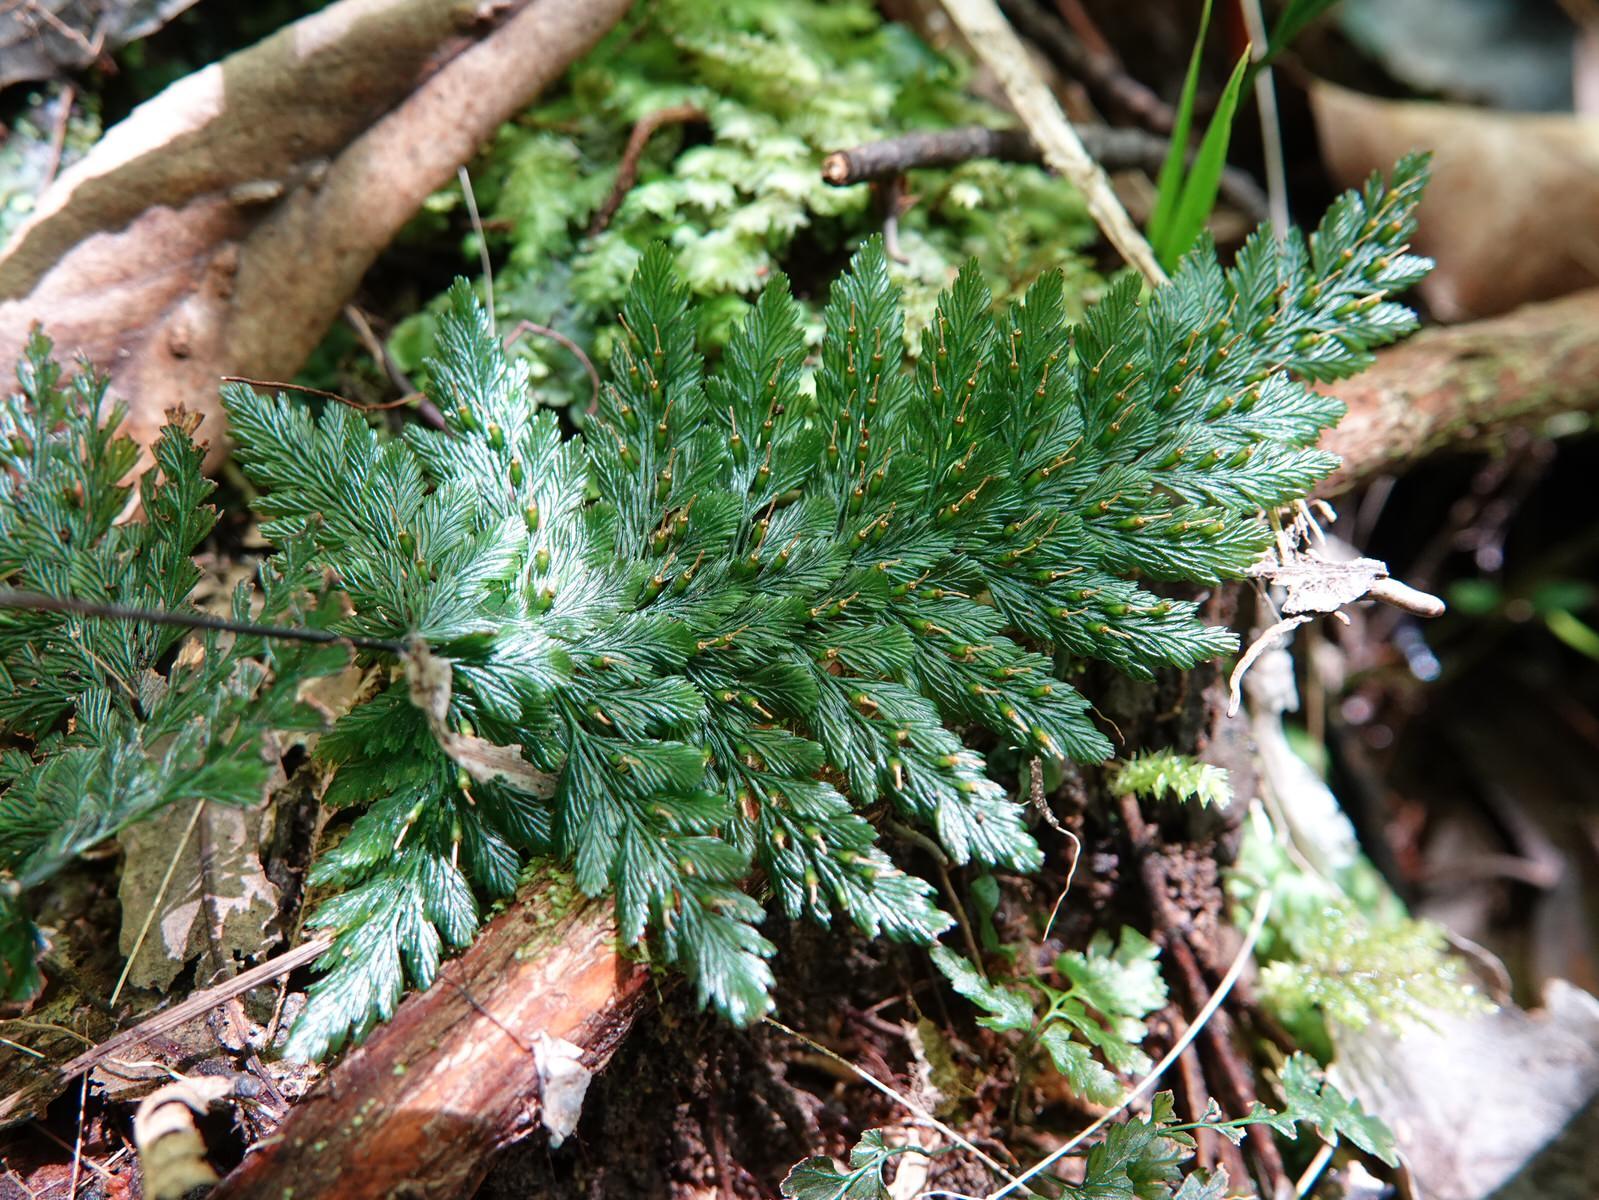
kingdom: Plantae
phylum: Tracheophyta
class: Polypodiopsida
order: Hymenophyllales
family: Hymenophyllaceae
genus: Abrodictyum
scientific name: Abrodictyum elongatum
